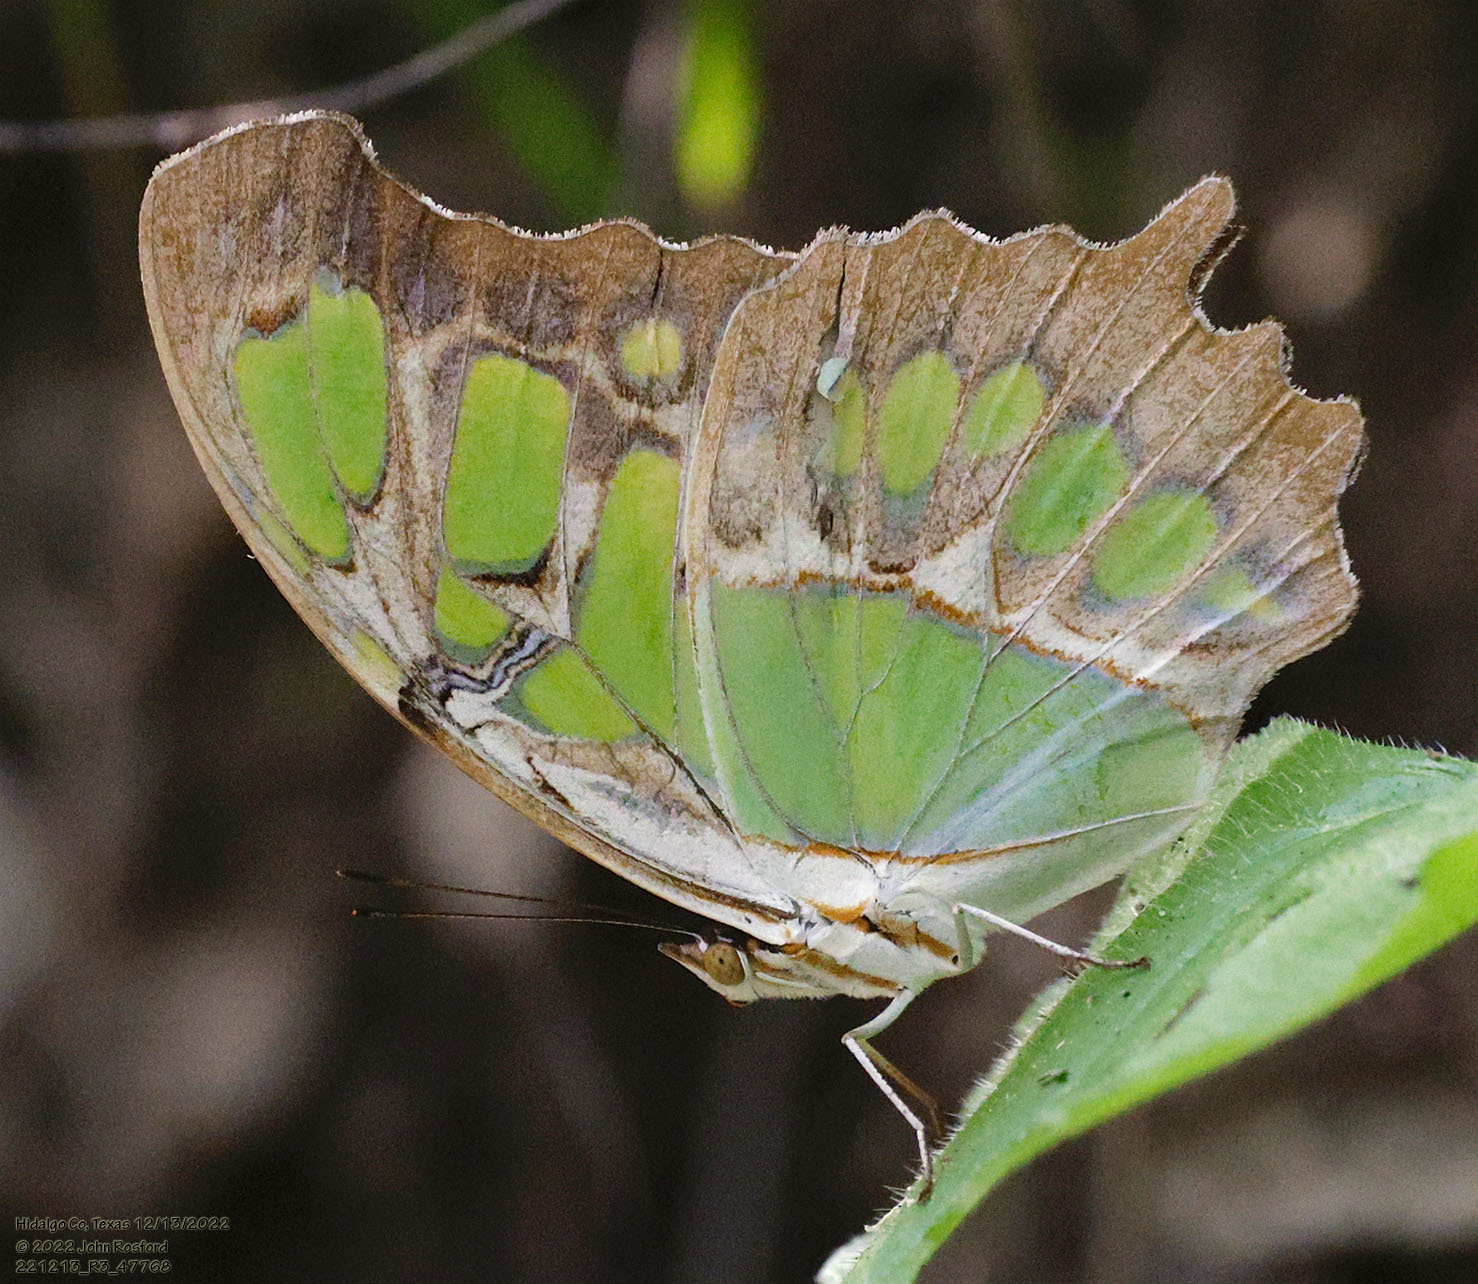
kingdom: Animalia
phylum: Arthropoda
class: Insecta
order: Lepidoptera
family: Nymphalidae
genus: Siproeta
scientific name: Siproeta stelenes
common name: Malachite
